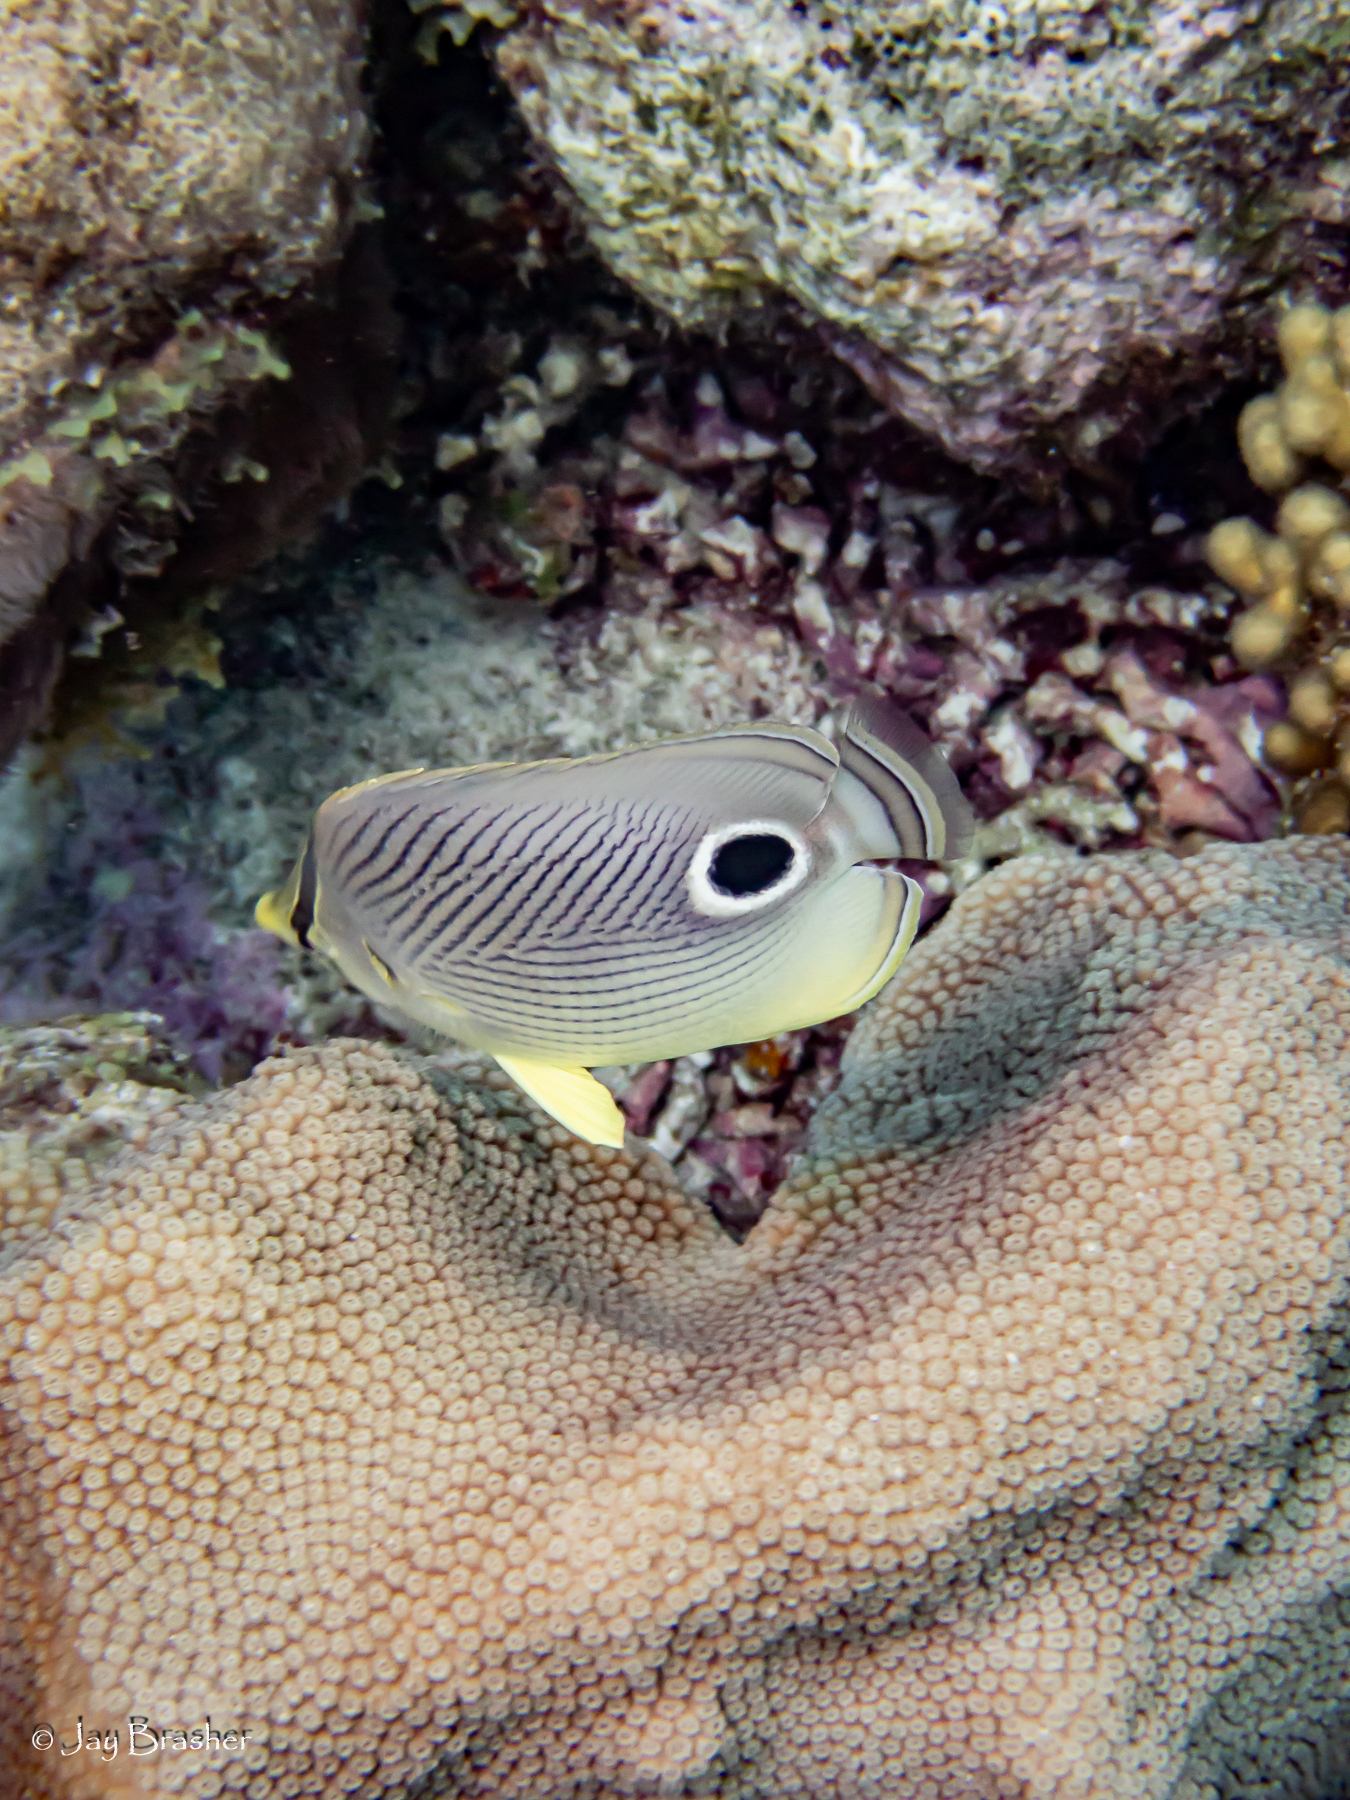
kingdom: Animalia
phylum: Chordata
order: Perciformes
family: Chaetodontidae
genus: Chaetodon
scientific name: Chaetodon capistratus
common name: Kete
